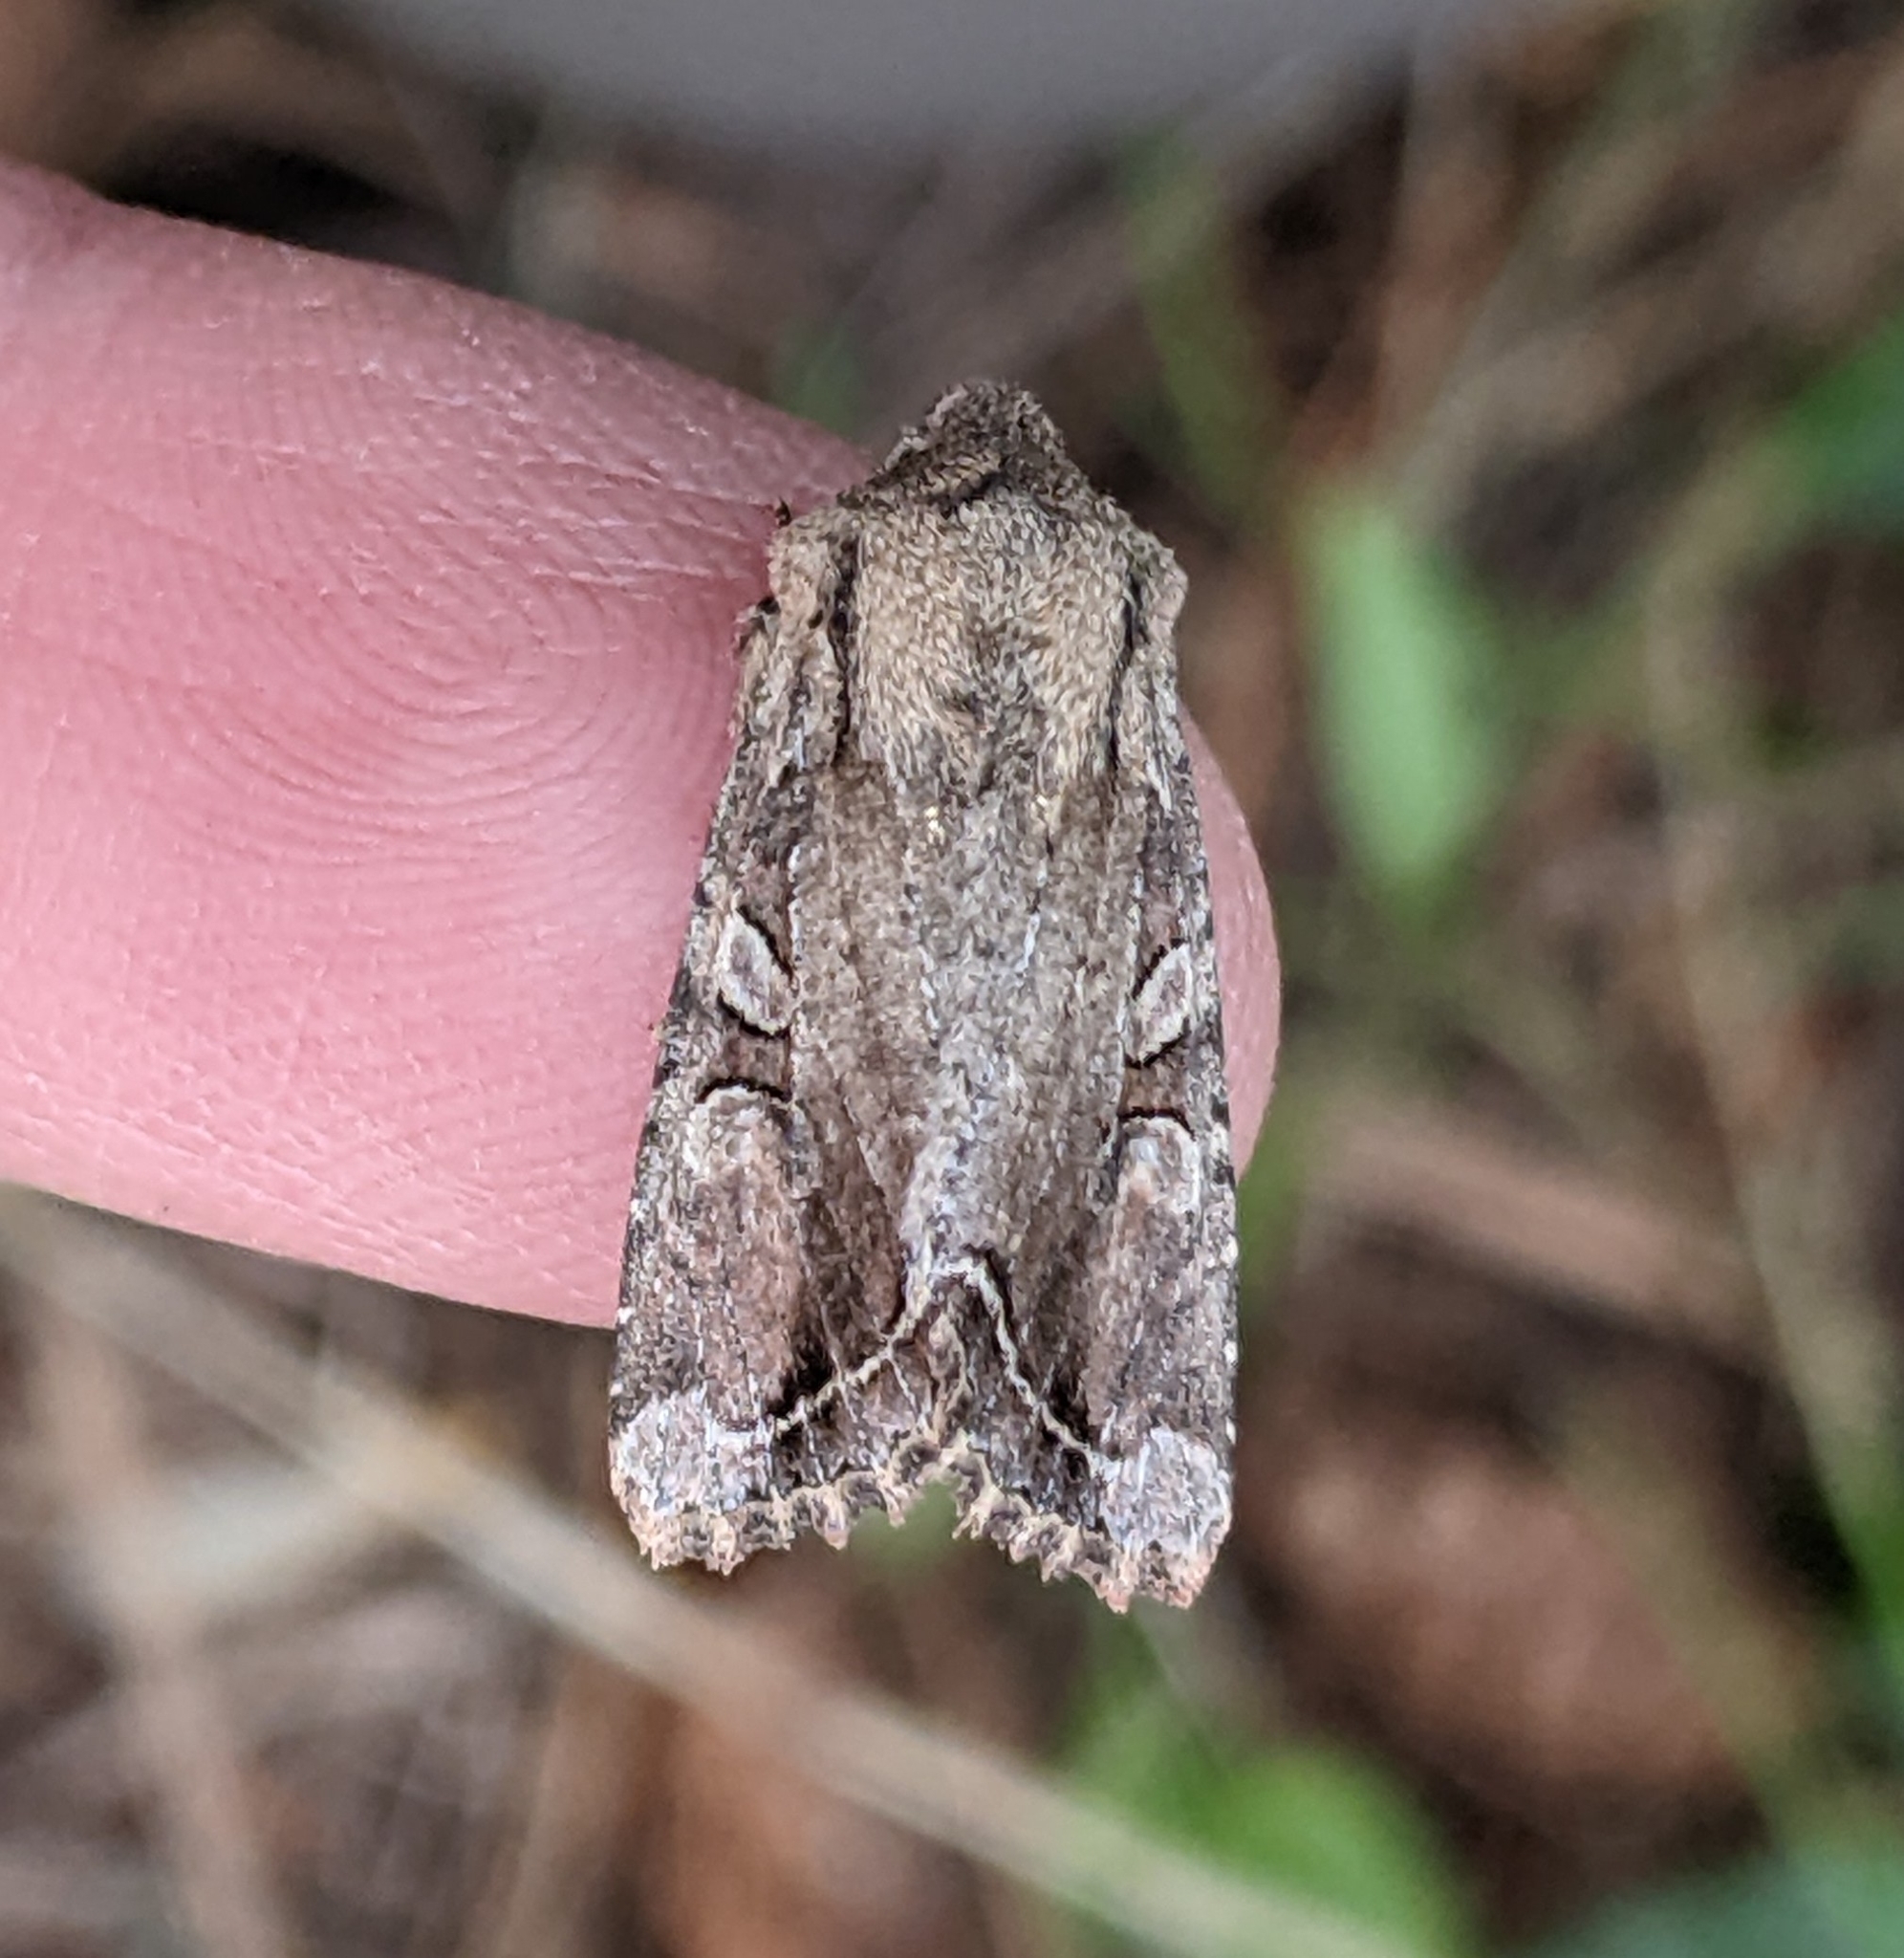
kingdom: Animalia
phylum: Arthropoda
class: Insecta
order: Lepidoptera
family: Noctuidae
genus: Egira
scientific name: Egira rubrica
